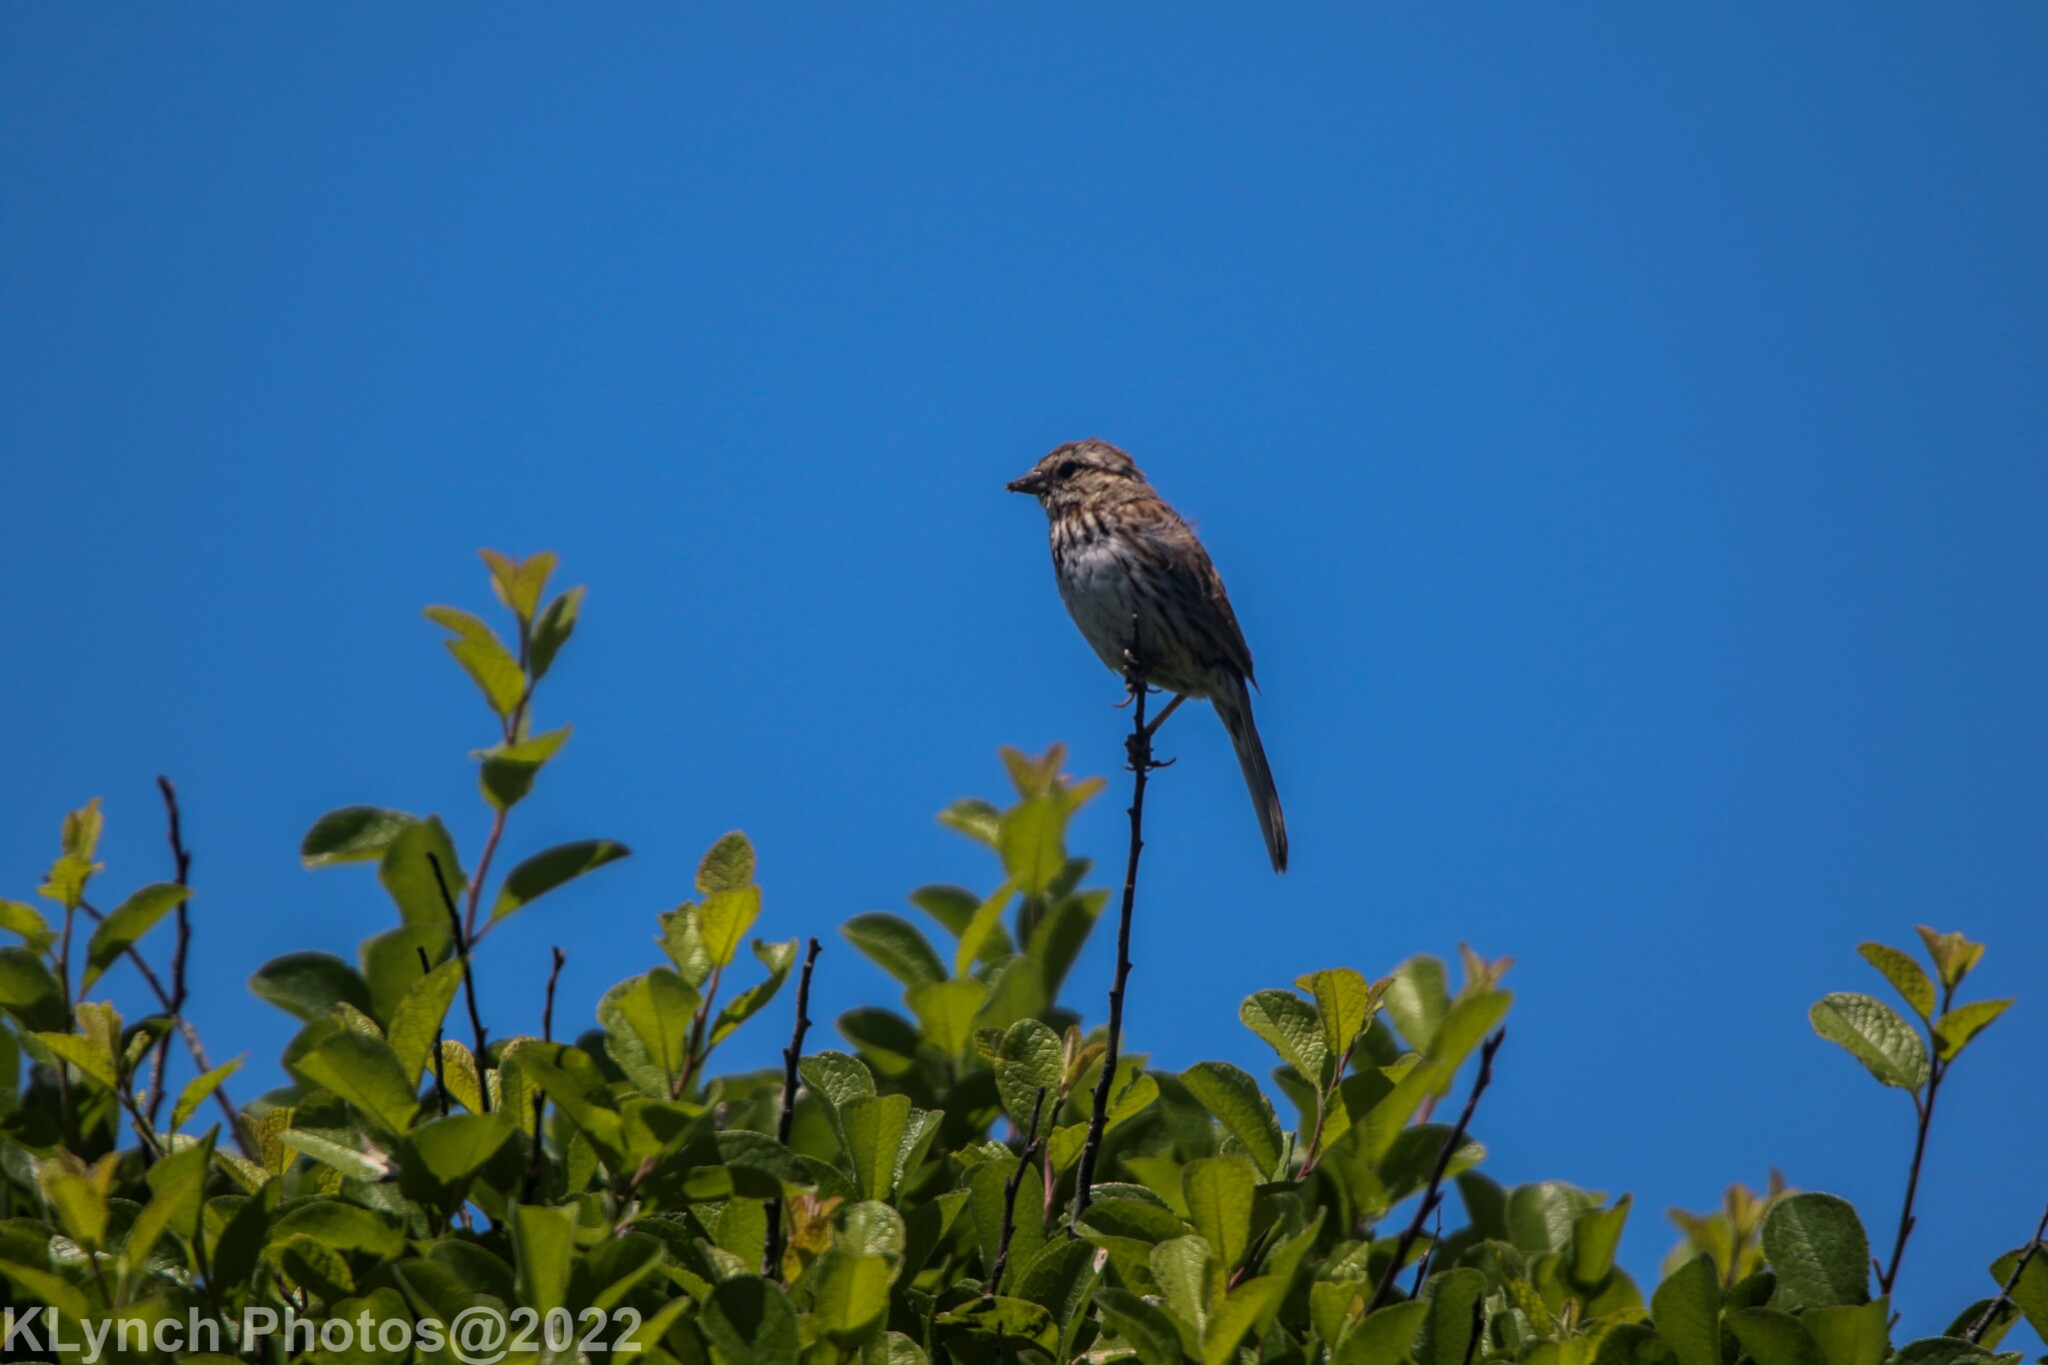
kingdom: Animalia
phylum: Chordata
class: Aves
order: Passeriformes
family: Passerellidae
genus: Melospiza
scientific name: Melospiza melodia
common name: Song sparrow
